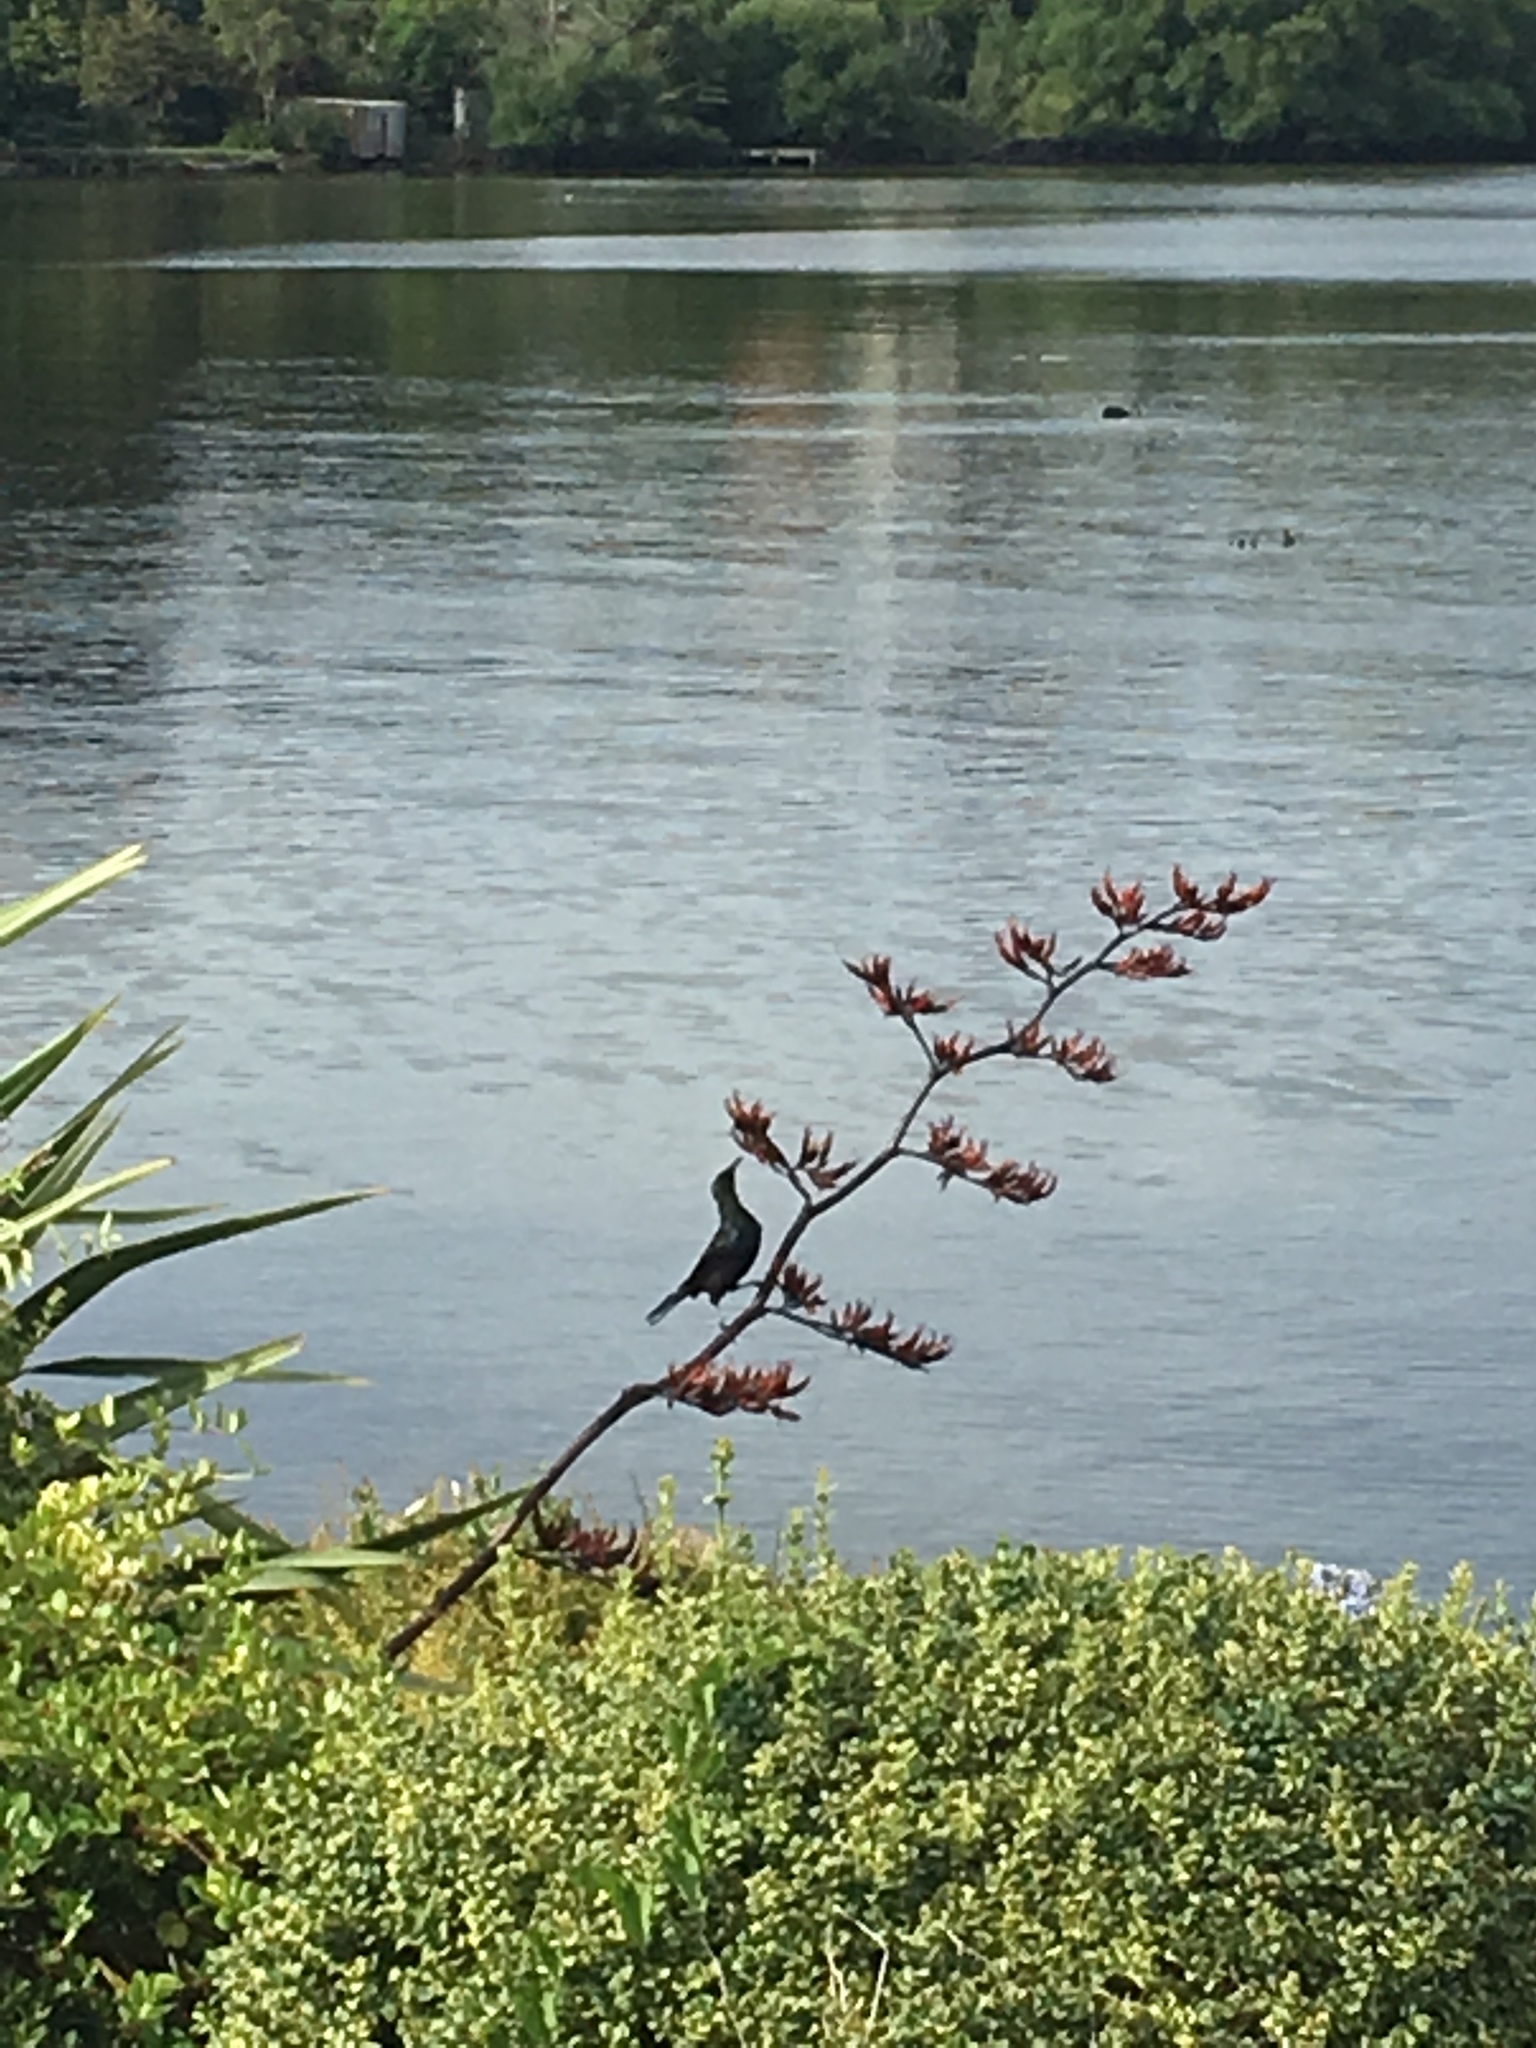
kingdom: Animalia
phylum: Chordata
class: Aves
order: Passeriformes
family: Meliphagidae
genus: Prosthemadera
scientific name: Prosthemadera novaeseelandiae
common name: Tui
